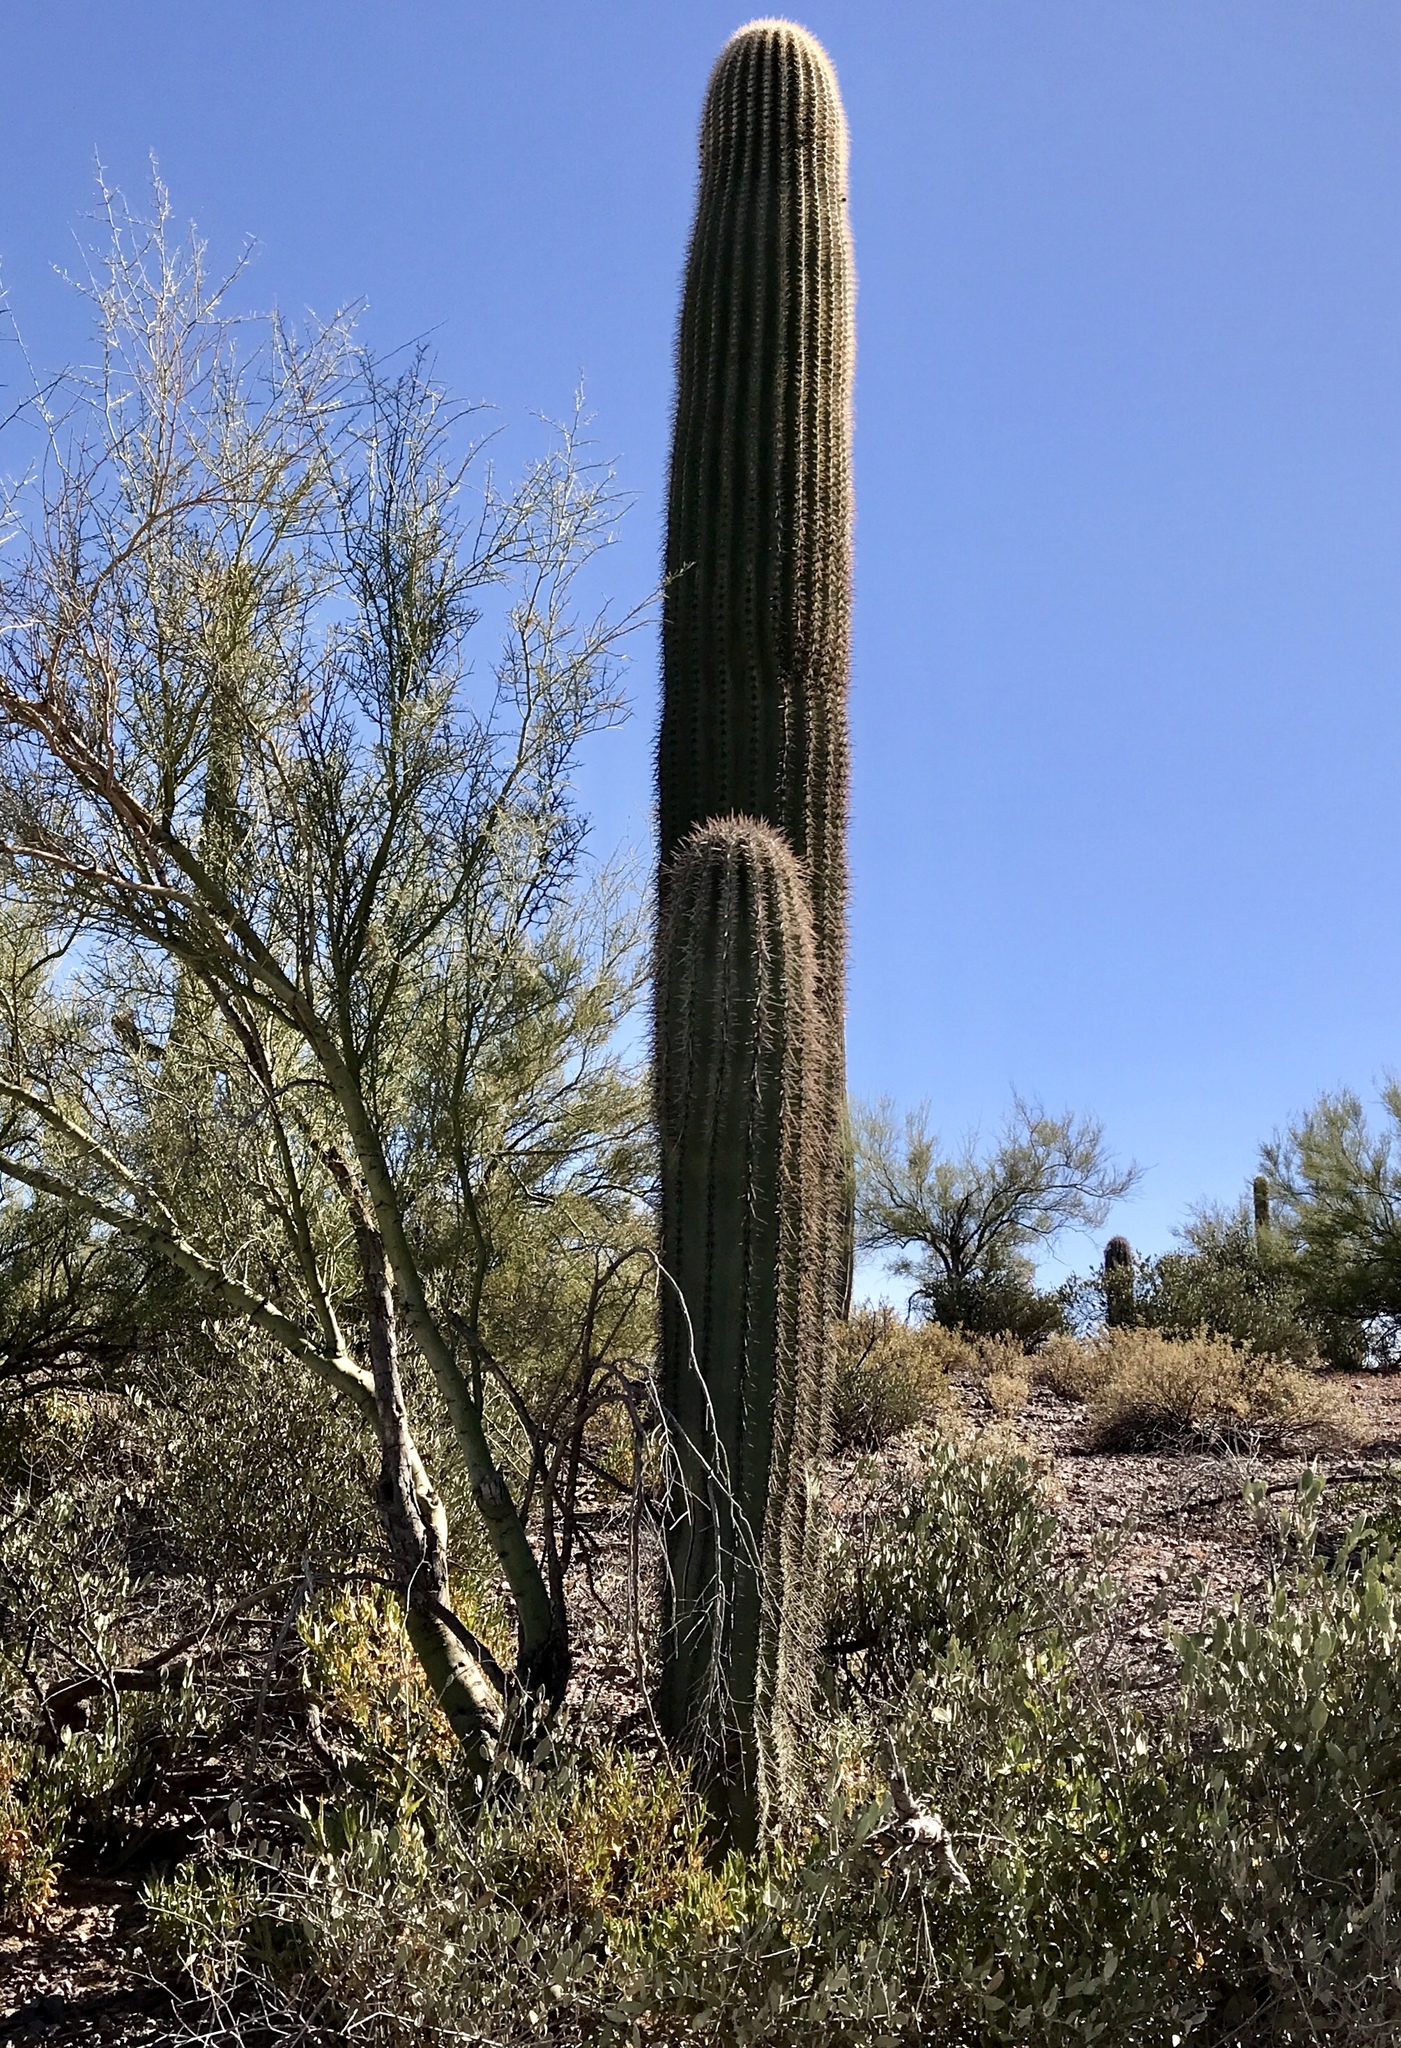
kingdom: Plantae
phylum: Tracheophyta
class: Magnoliopsida
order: Caryophyllales
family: Cactaceae
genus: Carnegiea
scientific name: Carnegiea gigantea
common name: Saguaro
